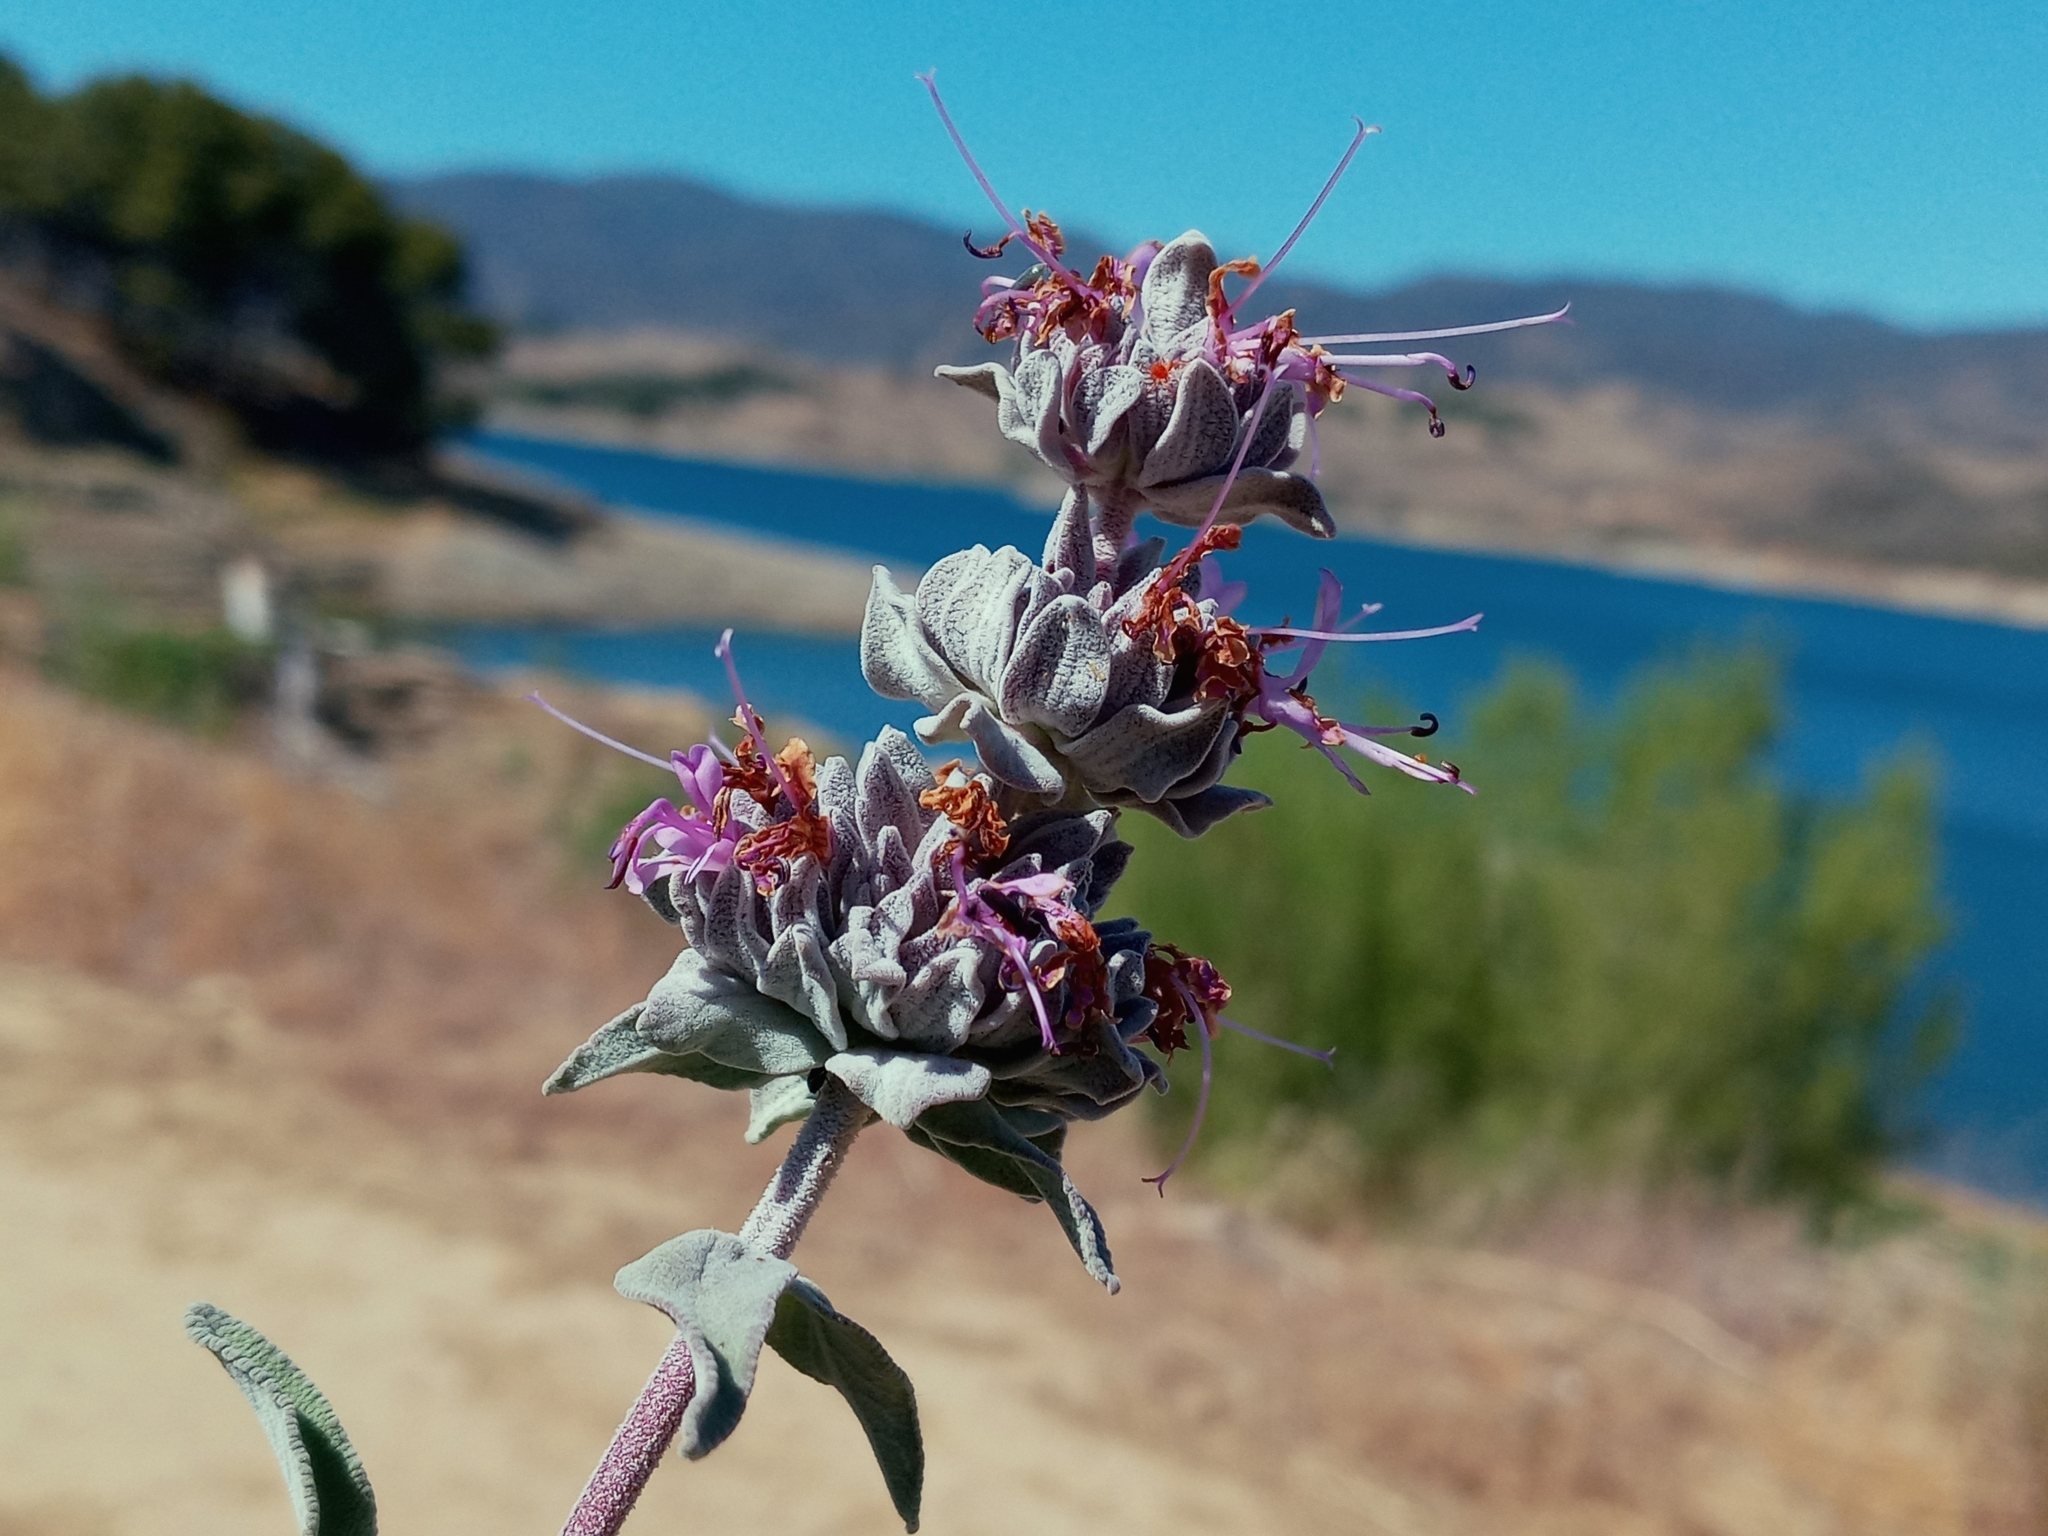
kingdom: Plantae
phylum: Tracheophyta
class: Magnoliopsida
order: Lamiales
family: Lamiaceae
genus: Salvia
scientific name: Salvia leucophylla
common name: Purple sage
